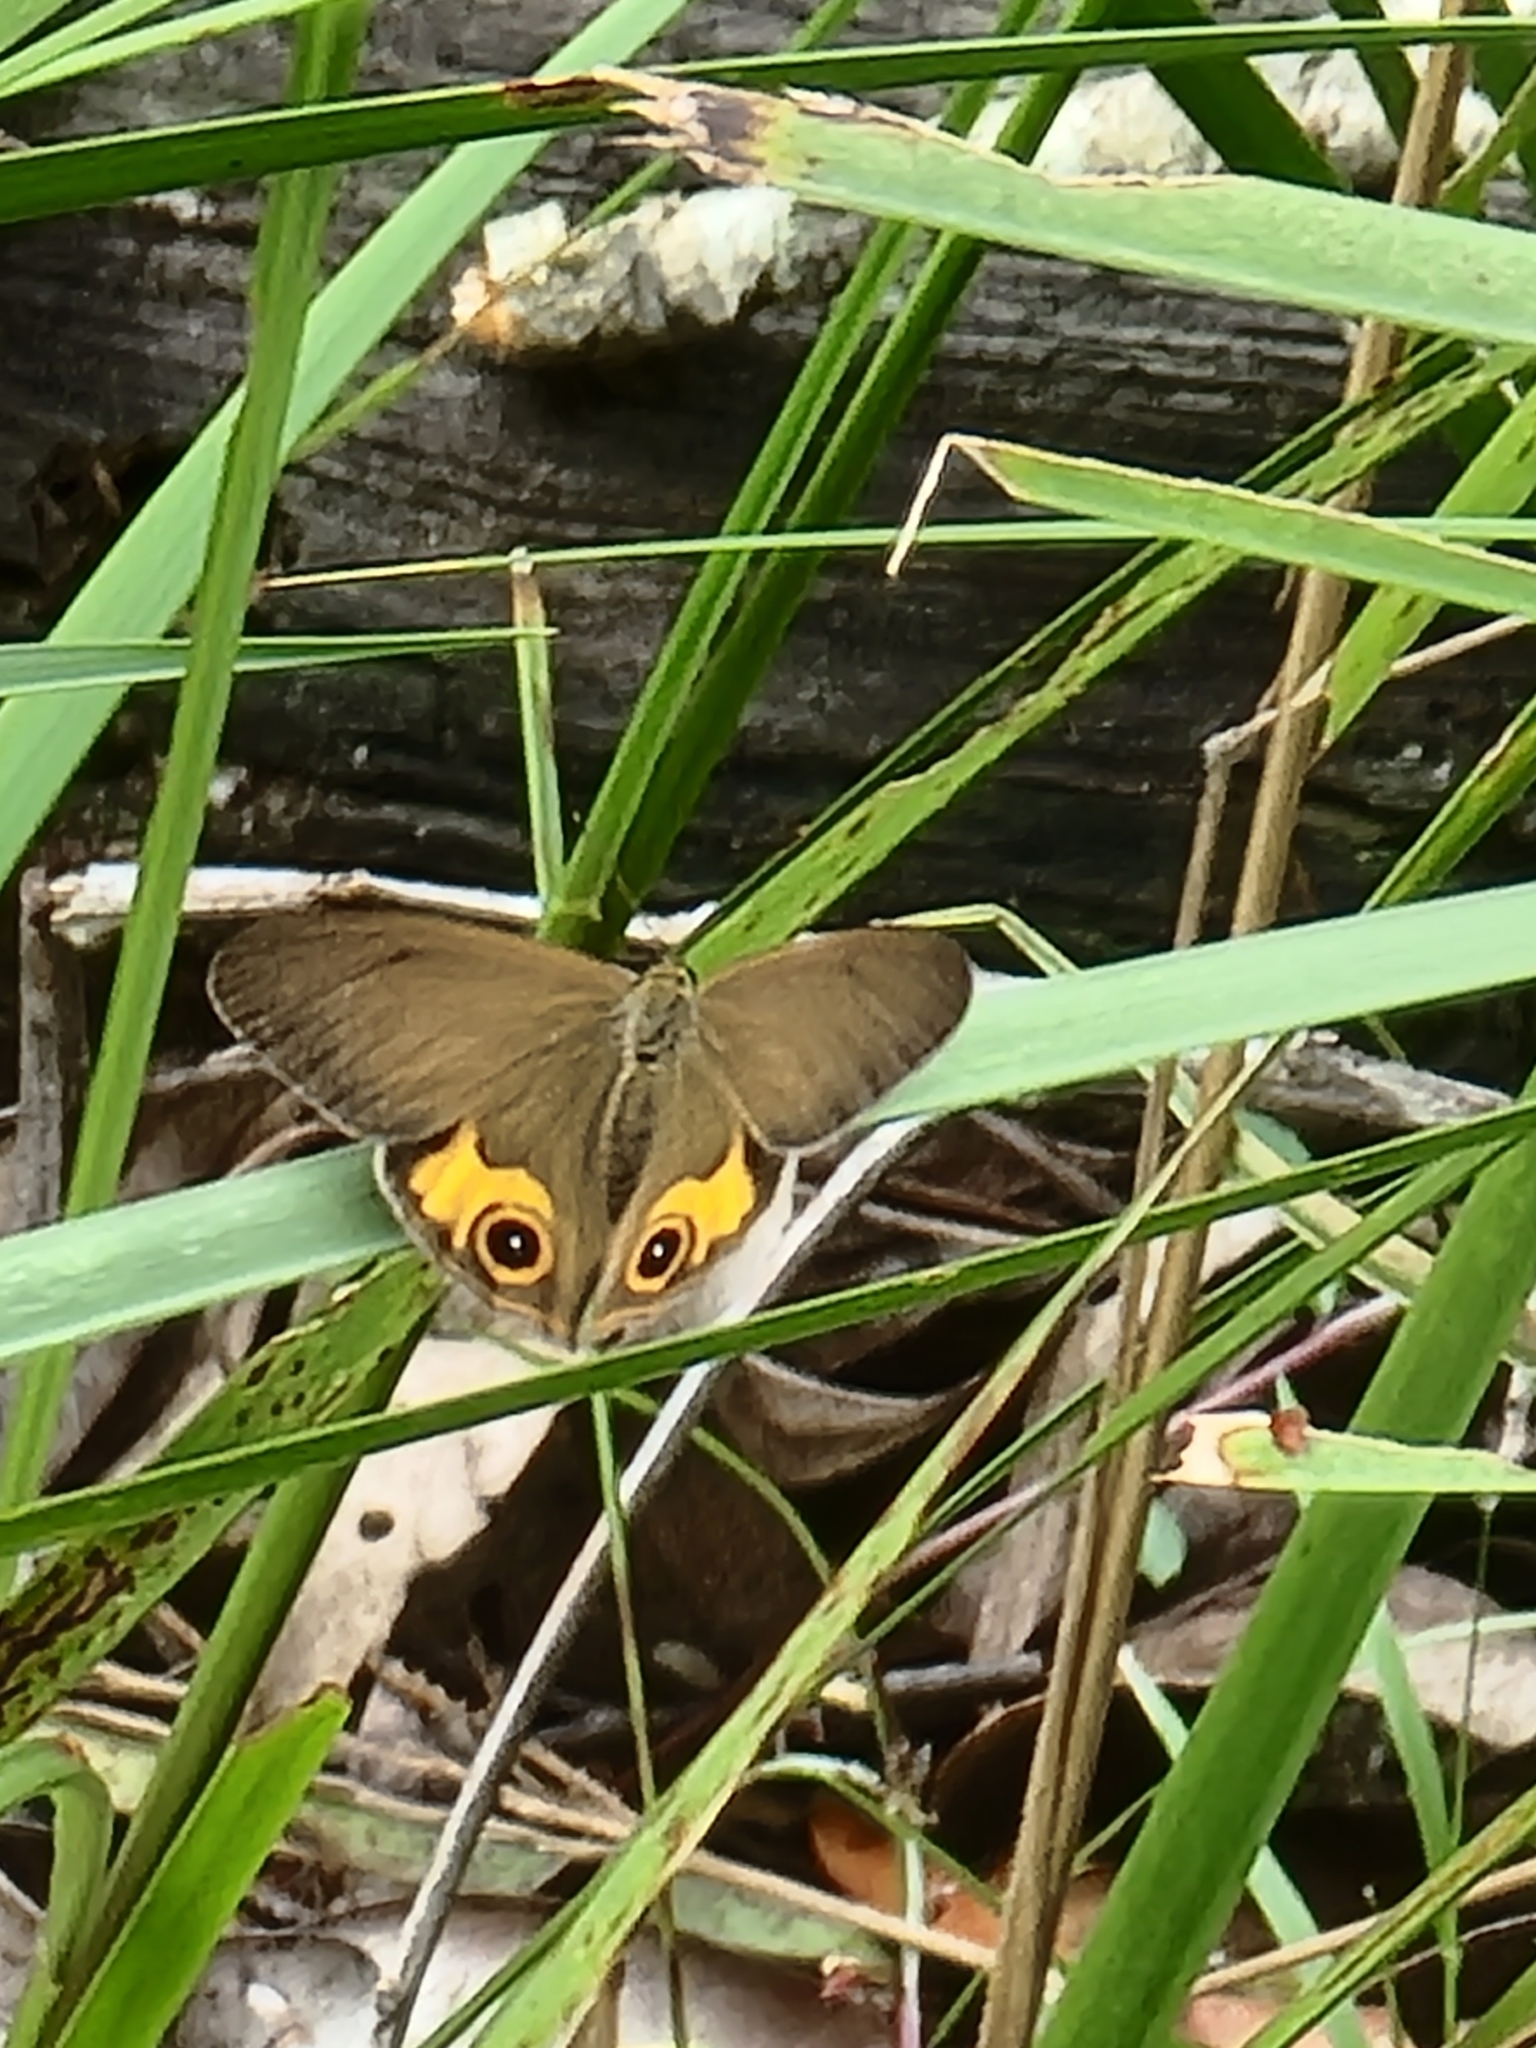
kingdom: Animalia
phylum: Arthropoda
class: Insecta
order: Lepidoptera
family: Nymphalidae
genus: Hypocysta
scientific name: Hypocysta metirius
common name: Brown ringlet
